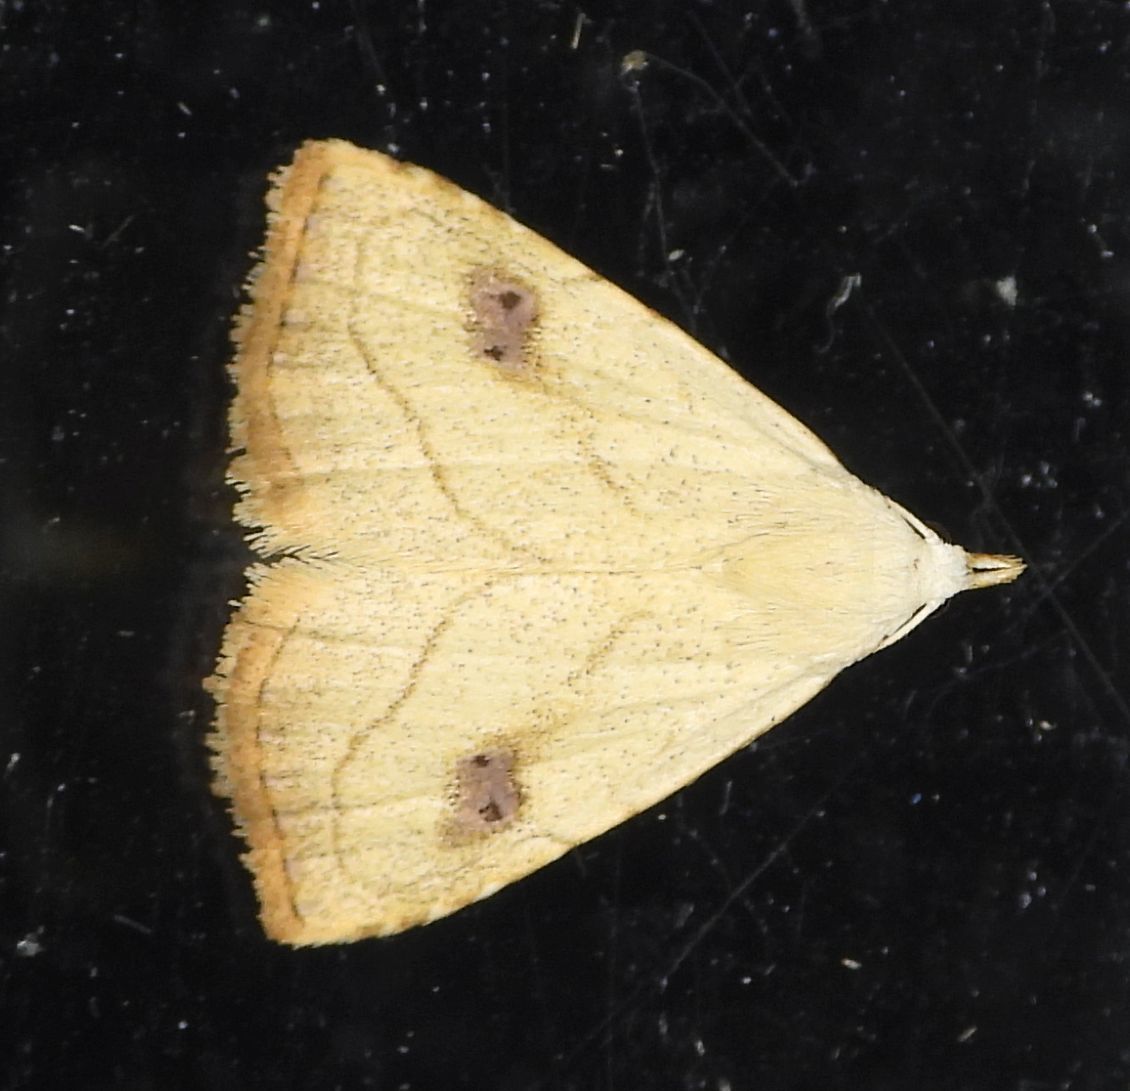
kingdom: Animalia
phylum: Arthropoda
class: Insecta
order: Lepidoptera
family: Erebidae
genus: Rivula
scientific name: Rivula propinqualis
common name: Spotted grass moth
